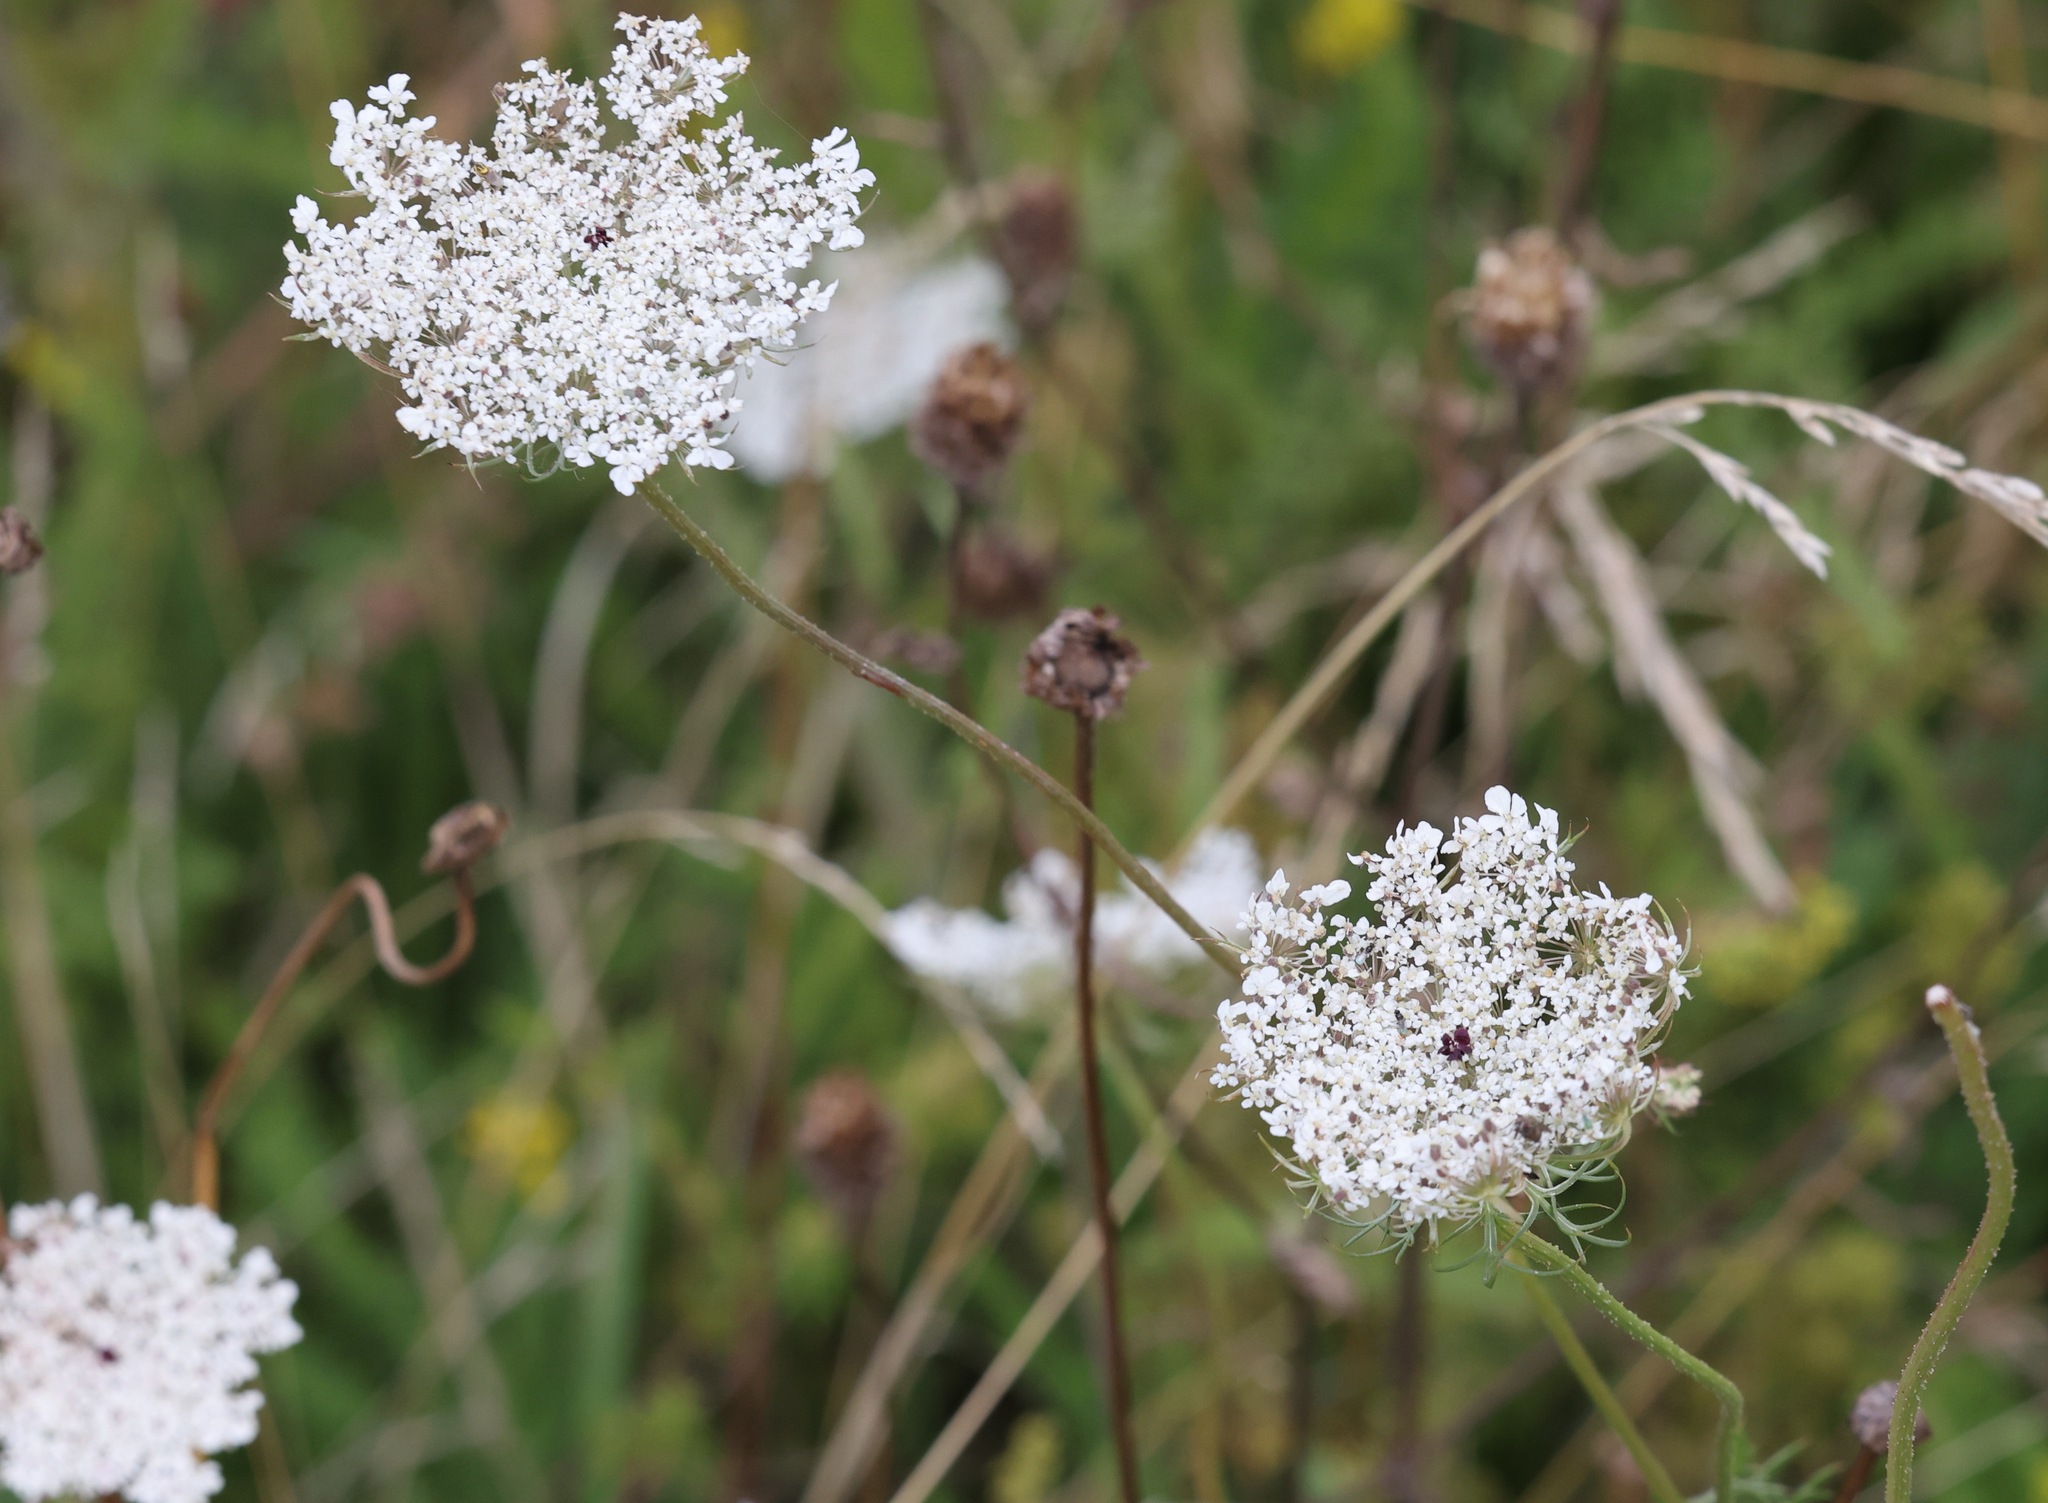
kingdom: Plantae
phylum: Tracheophyta
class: Magnoliopsida
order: Apiales
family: Apiaceae
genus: Daucus
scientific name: Daucus carota
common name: Wild carrot
